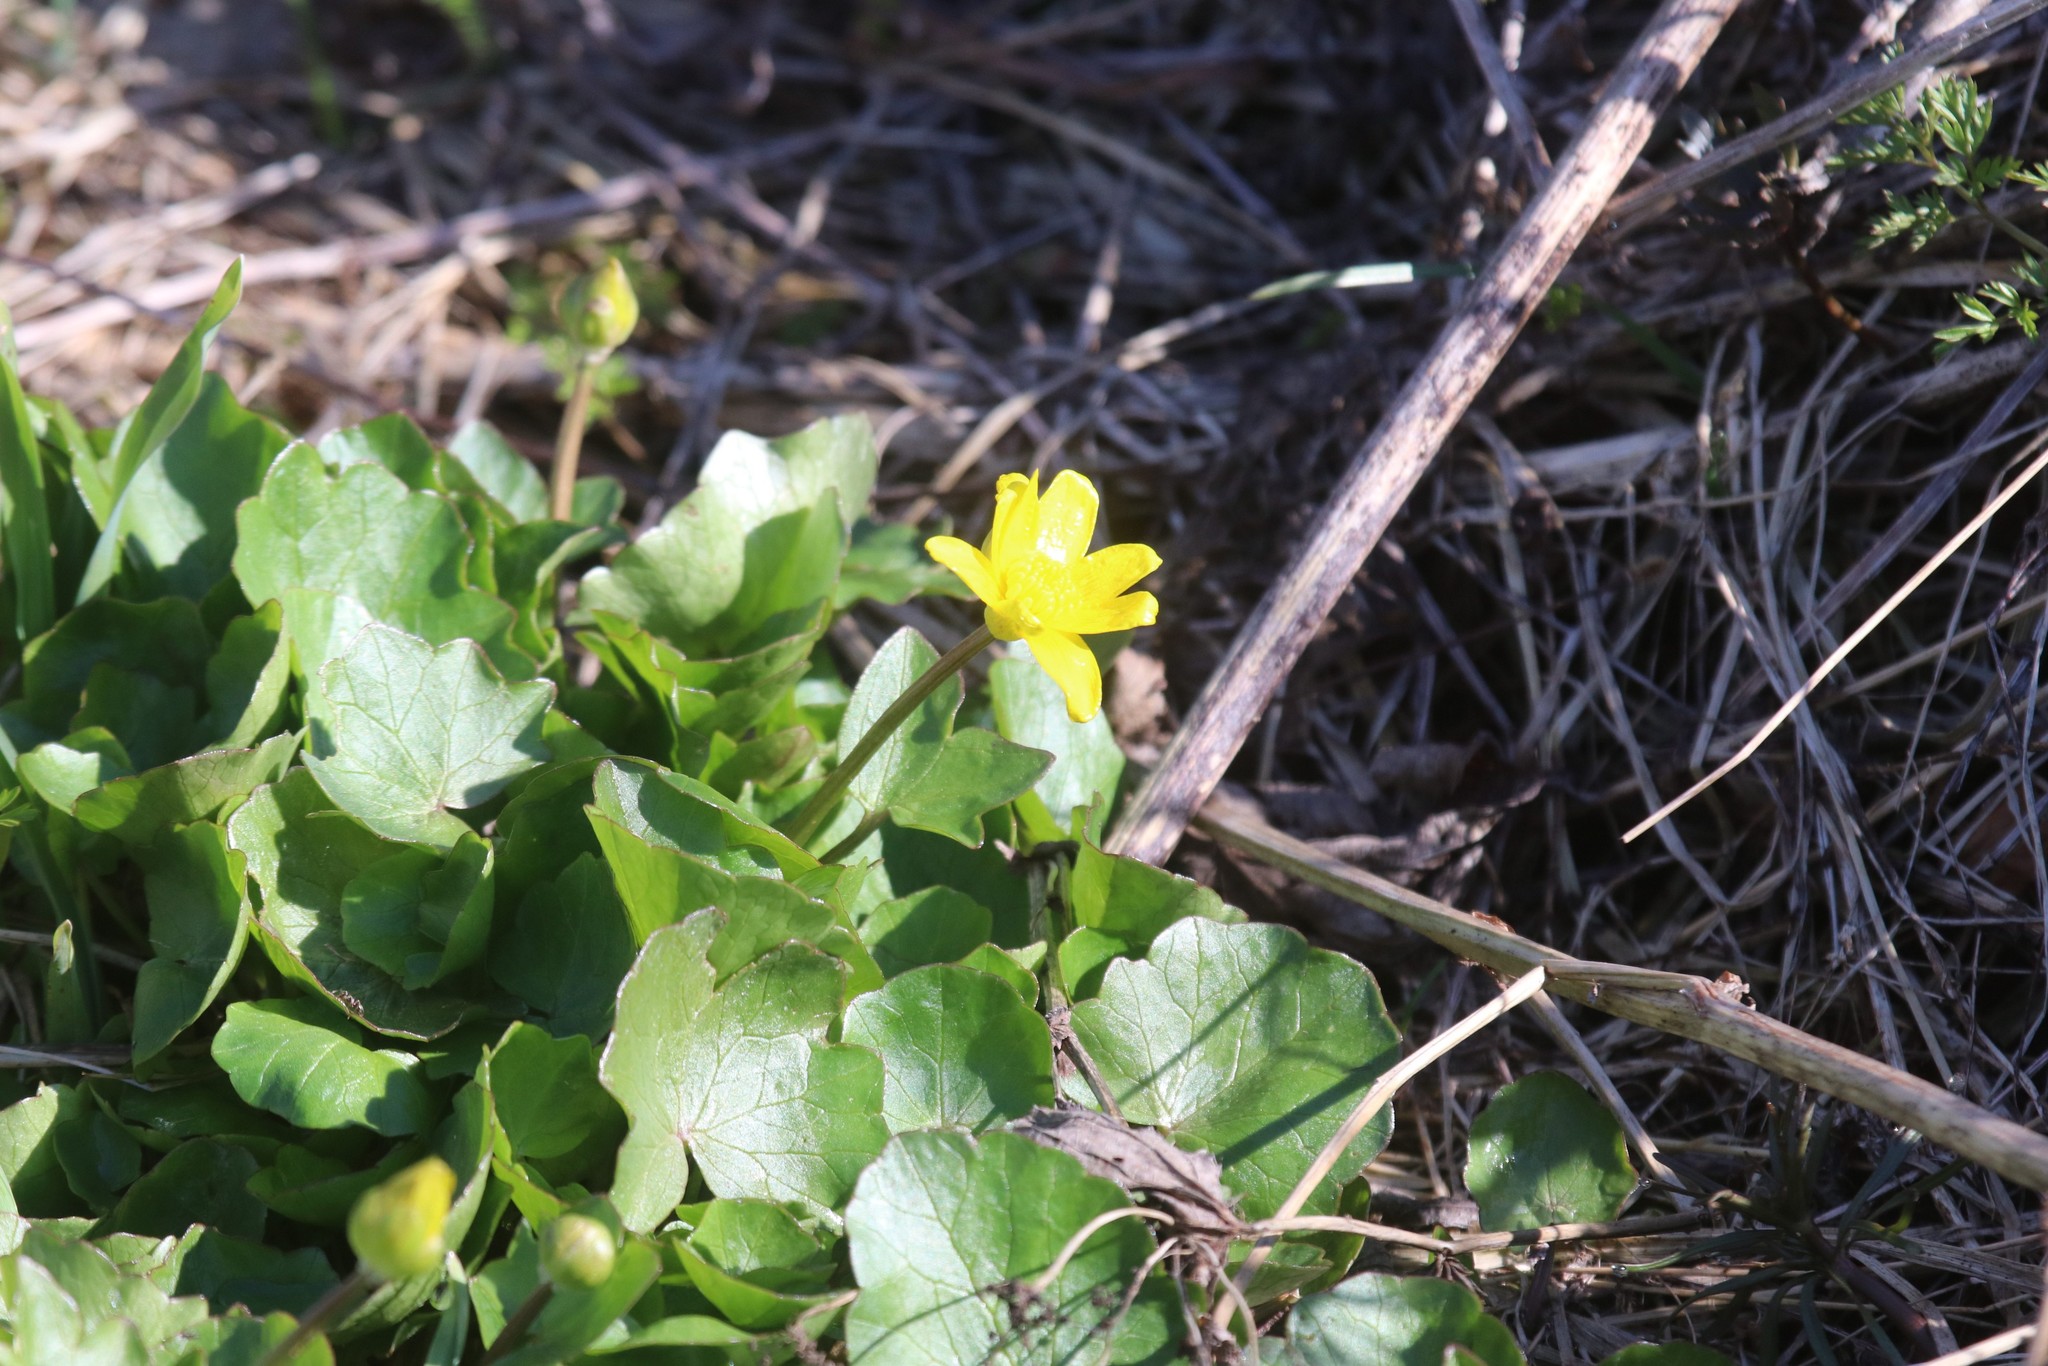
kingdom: Plantae
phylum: Tracheophyta
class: Magnoliopsida
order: Ranunculales
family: Ranunculaceae
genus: Ficaria
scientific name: Ficaria verna
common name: Lesser celandine
